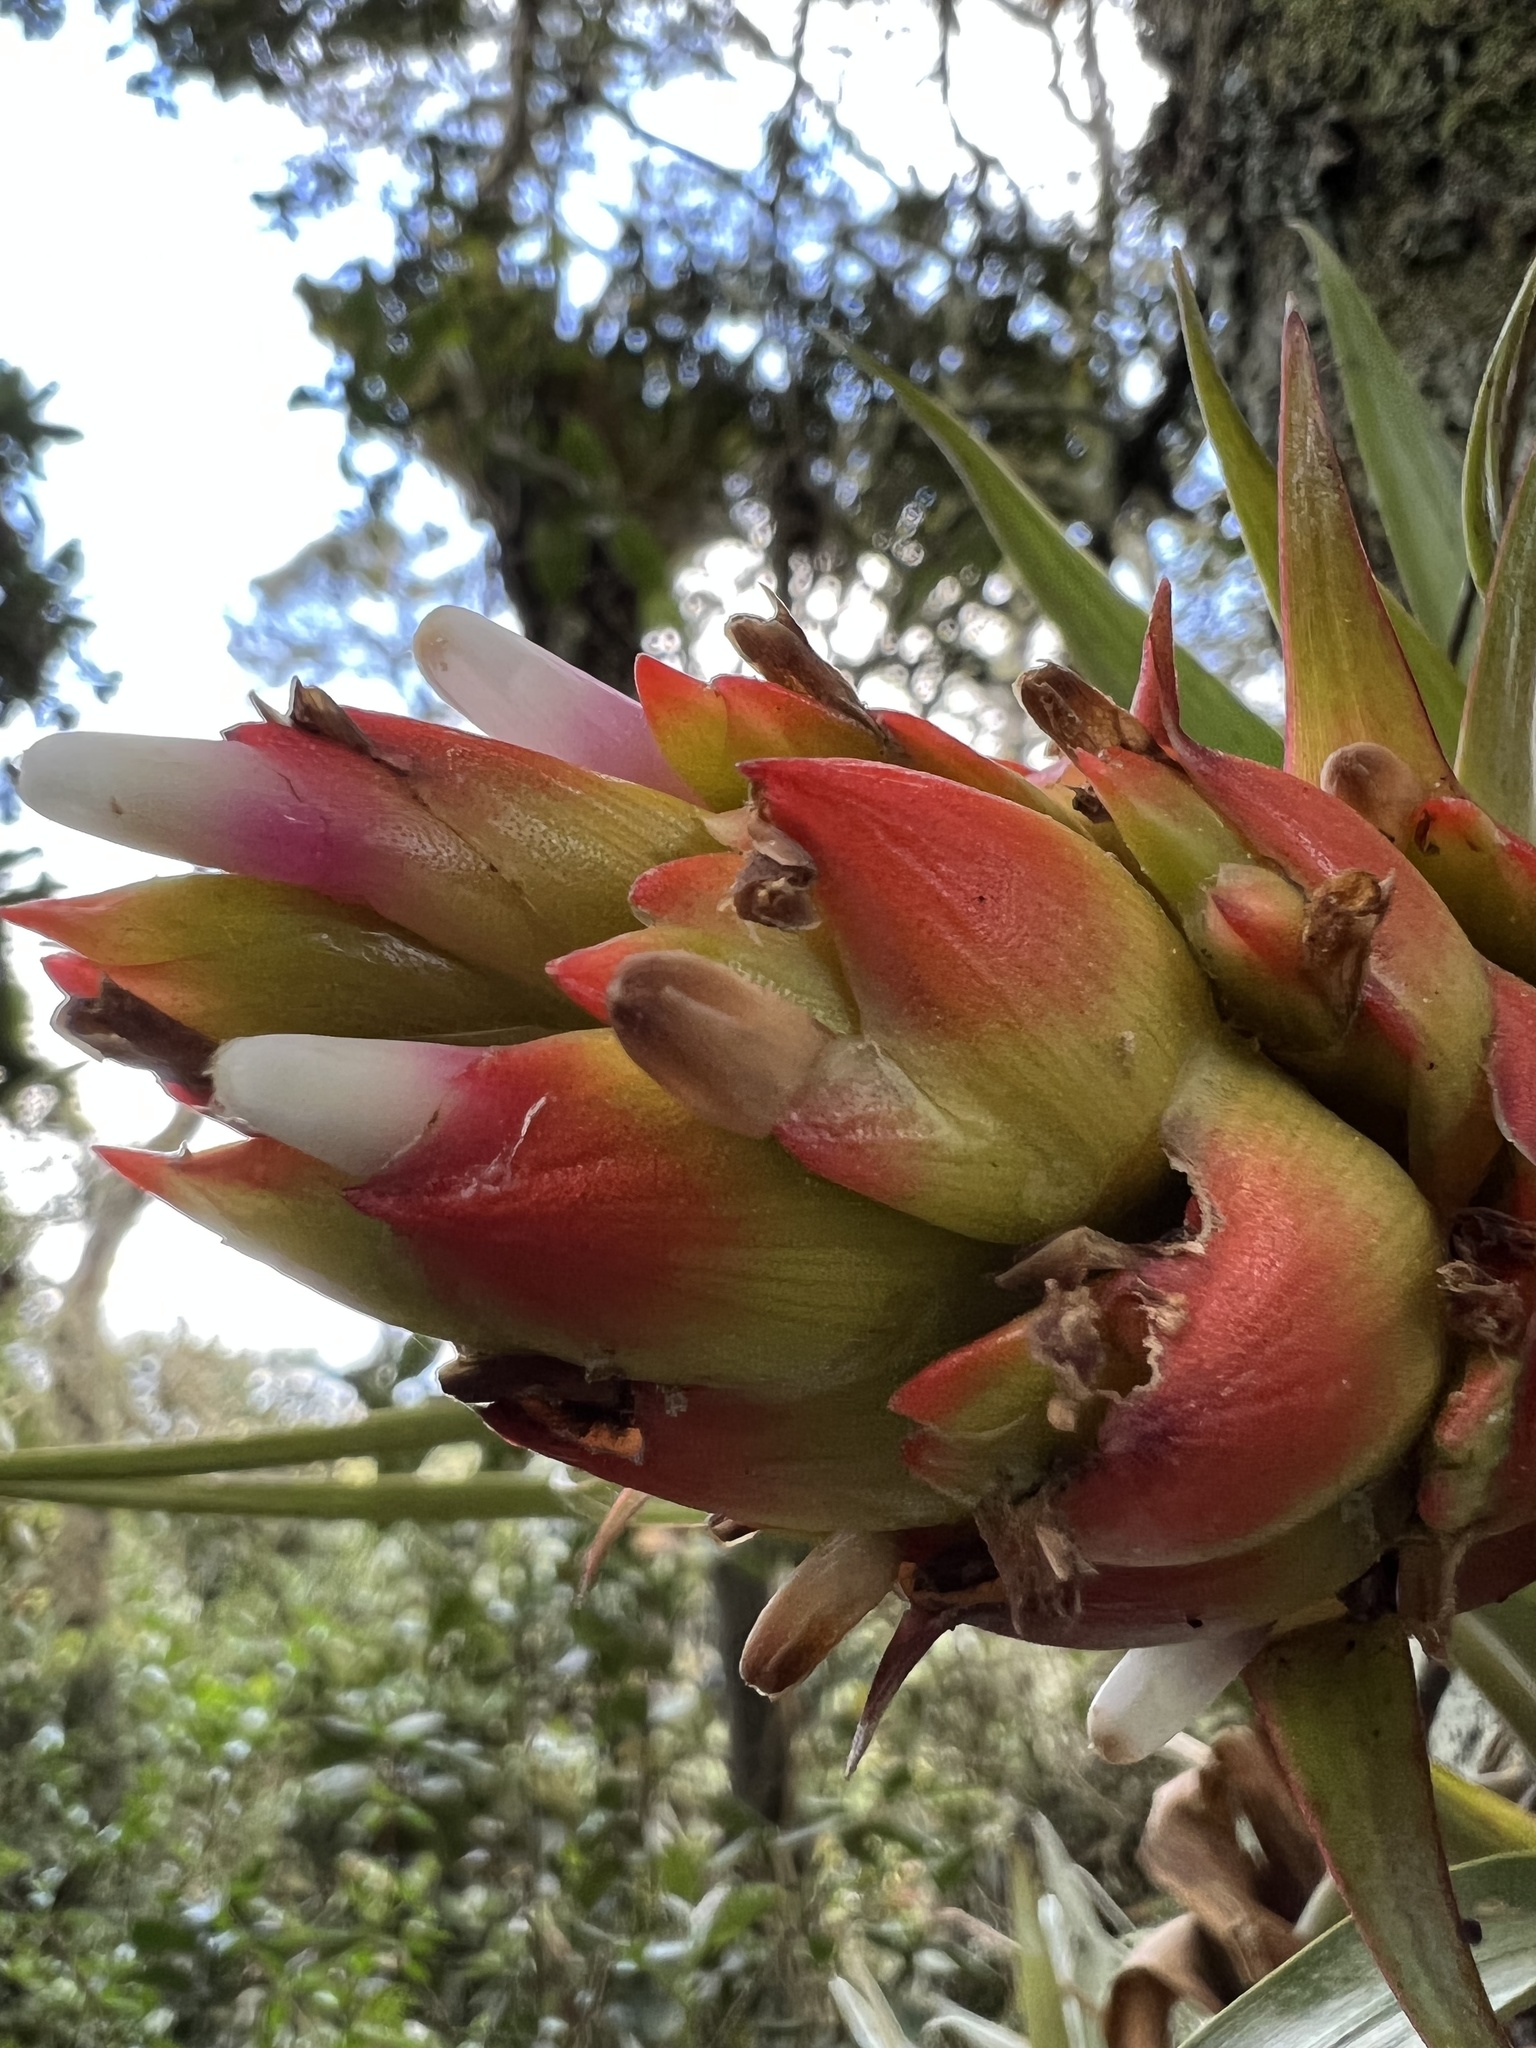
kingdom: Plantae
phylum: Tracheophyta
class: Liliopsida
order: Poales
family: Bromeliaceae
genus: Tillandsia
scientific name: Tillandsia turneri
